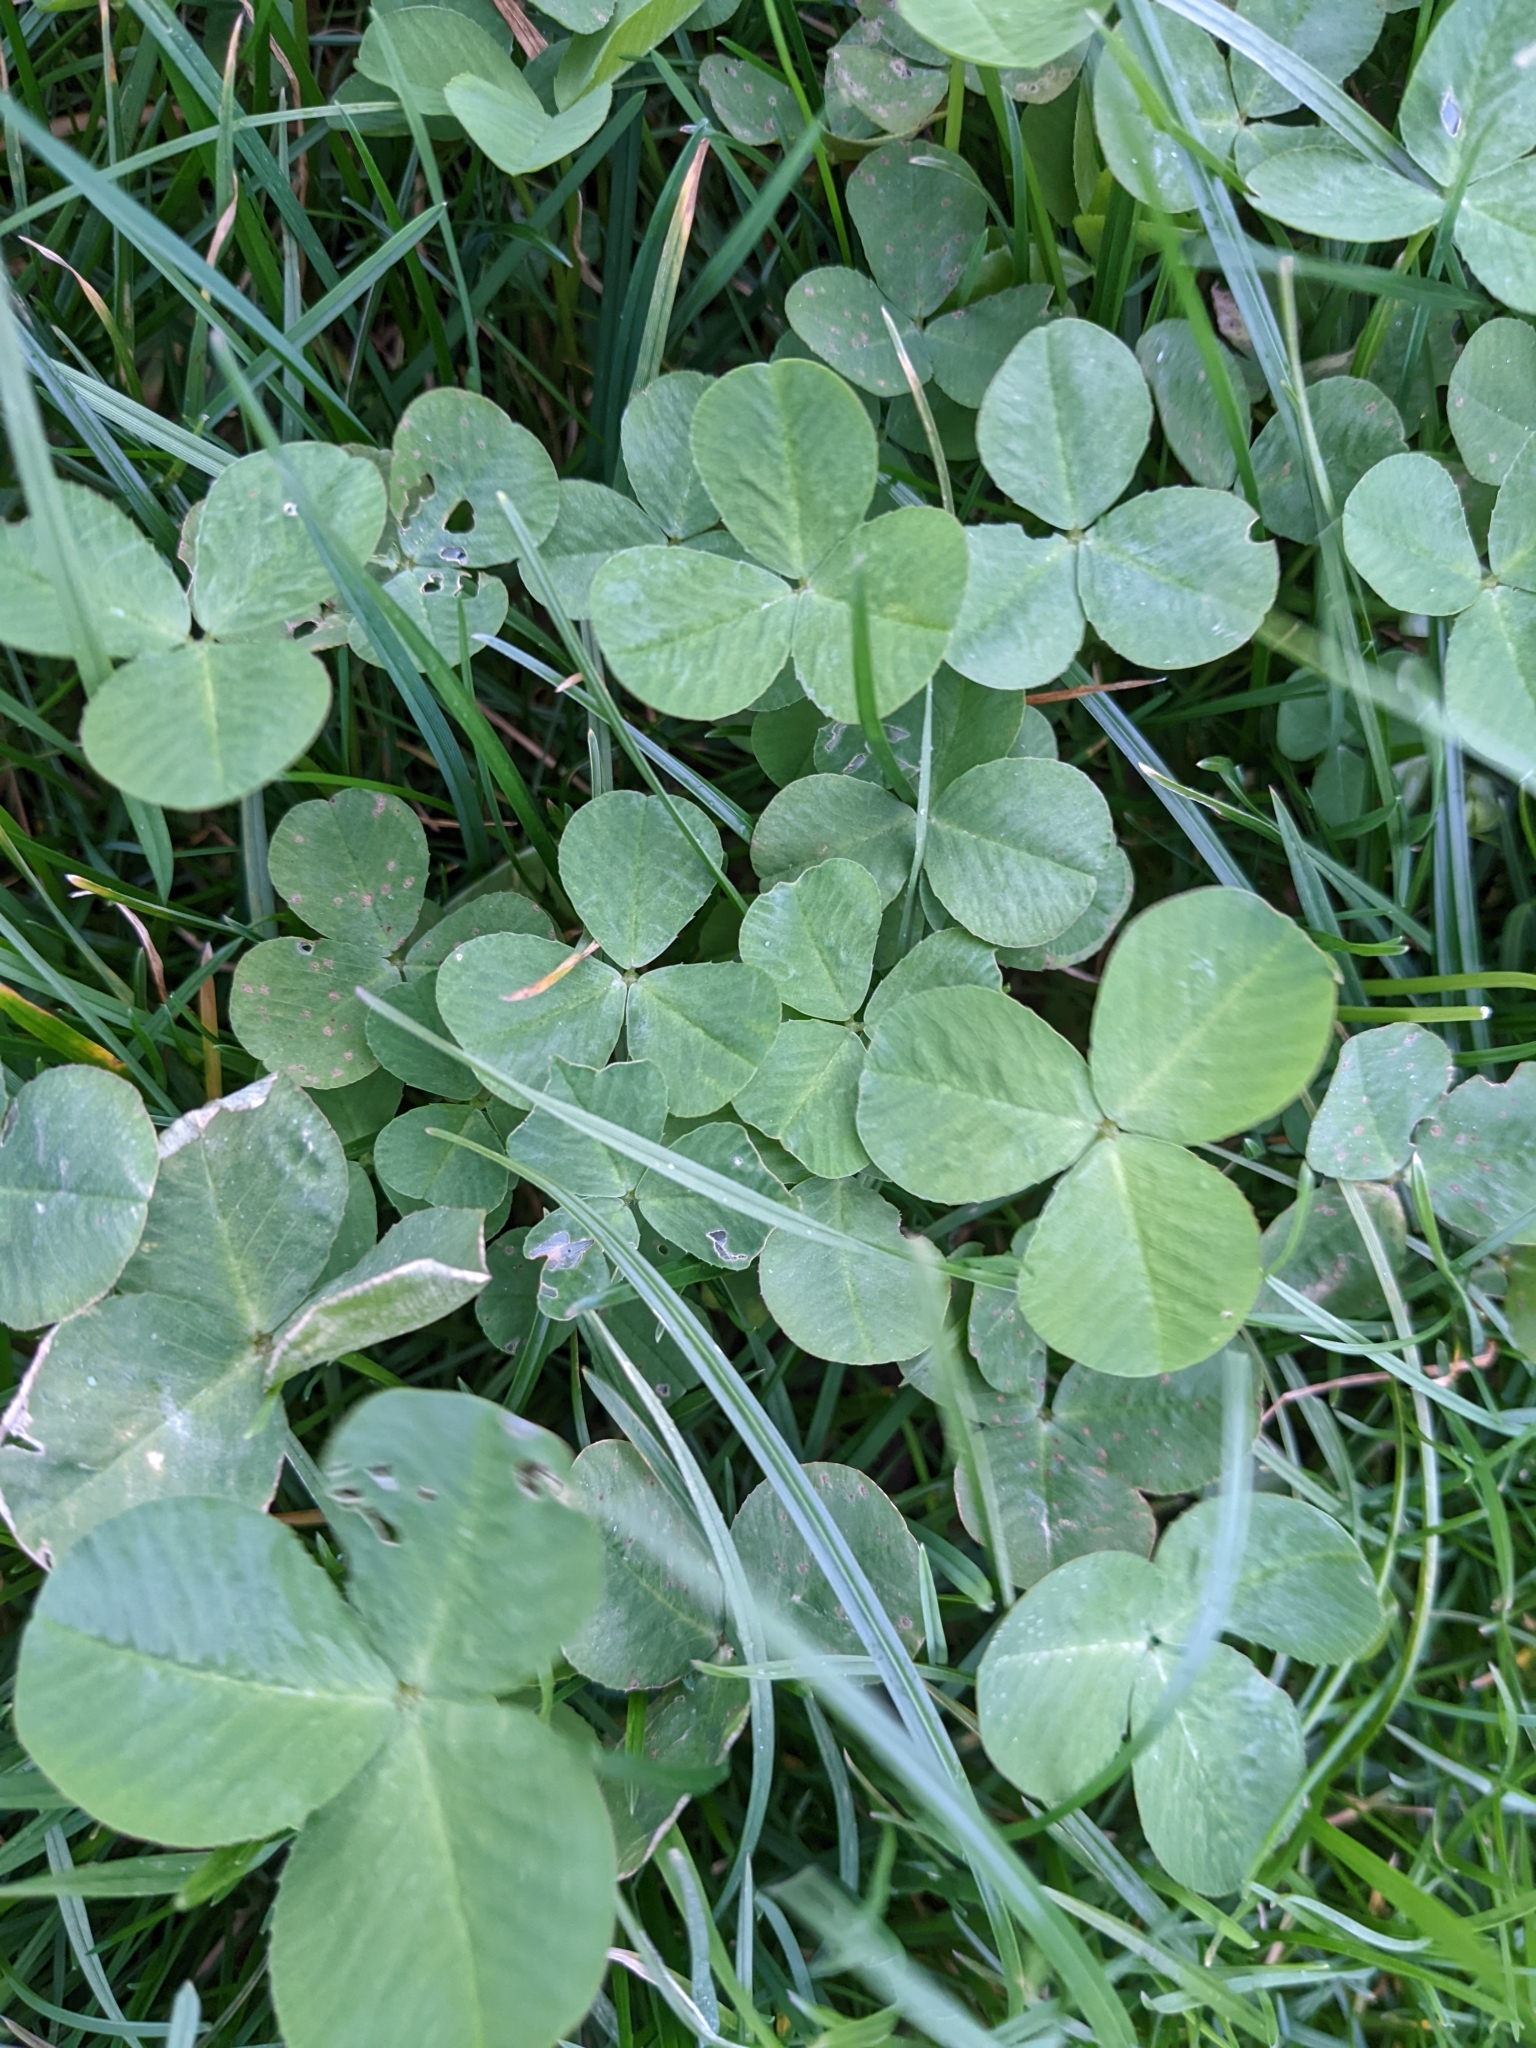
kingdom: Plantae
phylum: Tracheophyta
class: Magnoliopsida
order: Fabales
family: Fabaceae
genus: Trifolium
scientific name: Trifolium repens
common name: White clover
